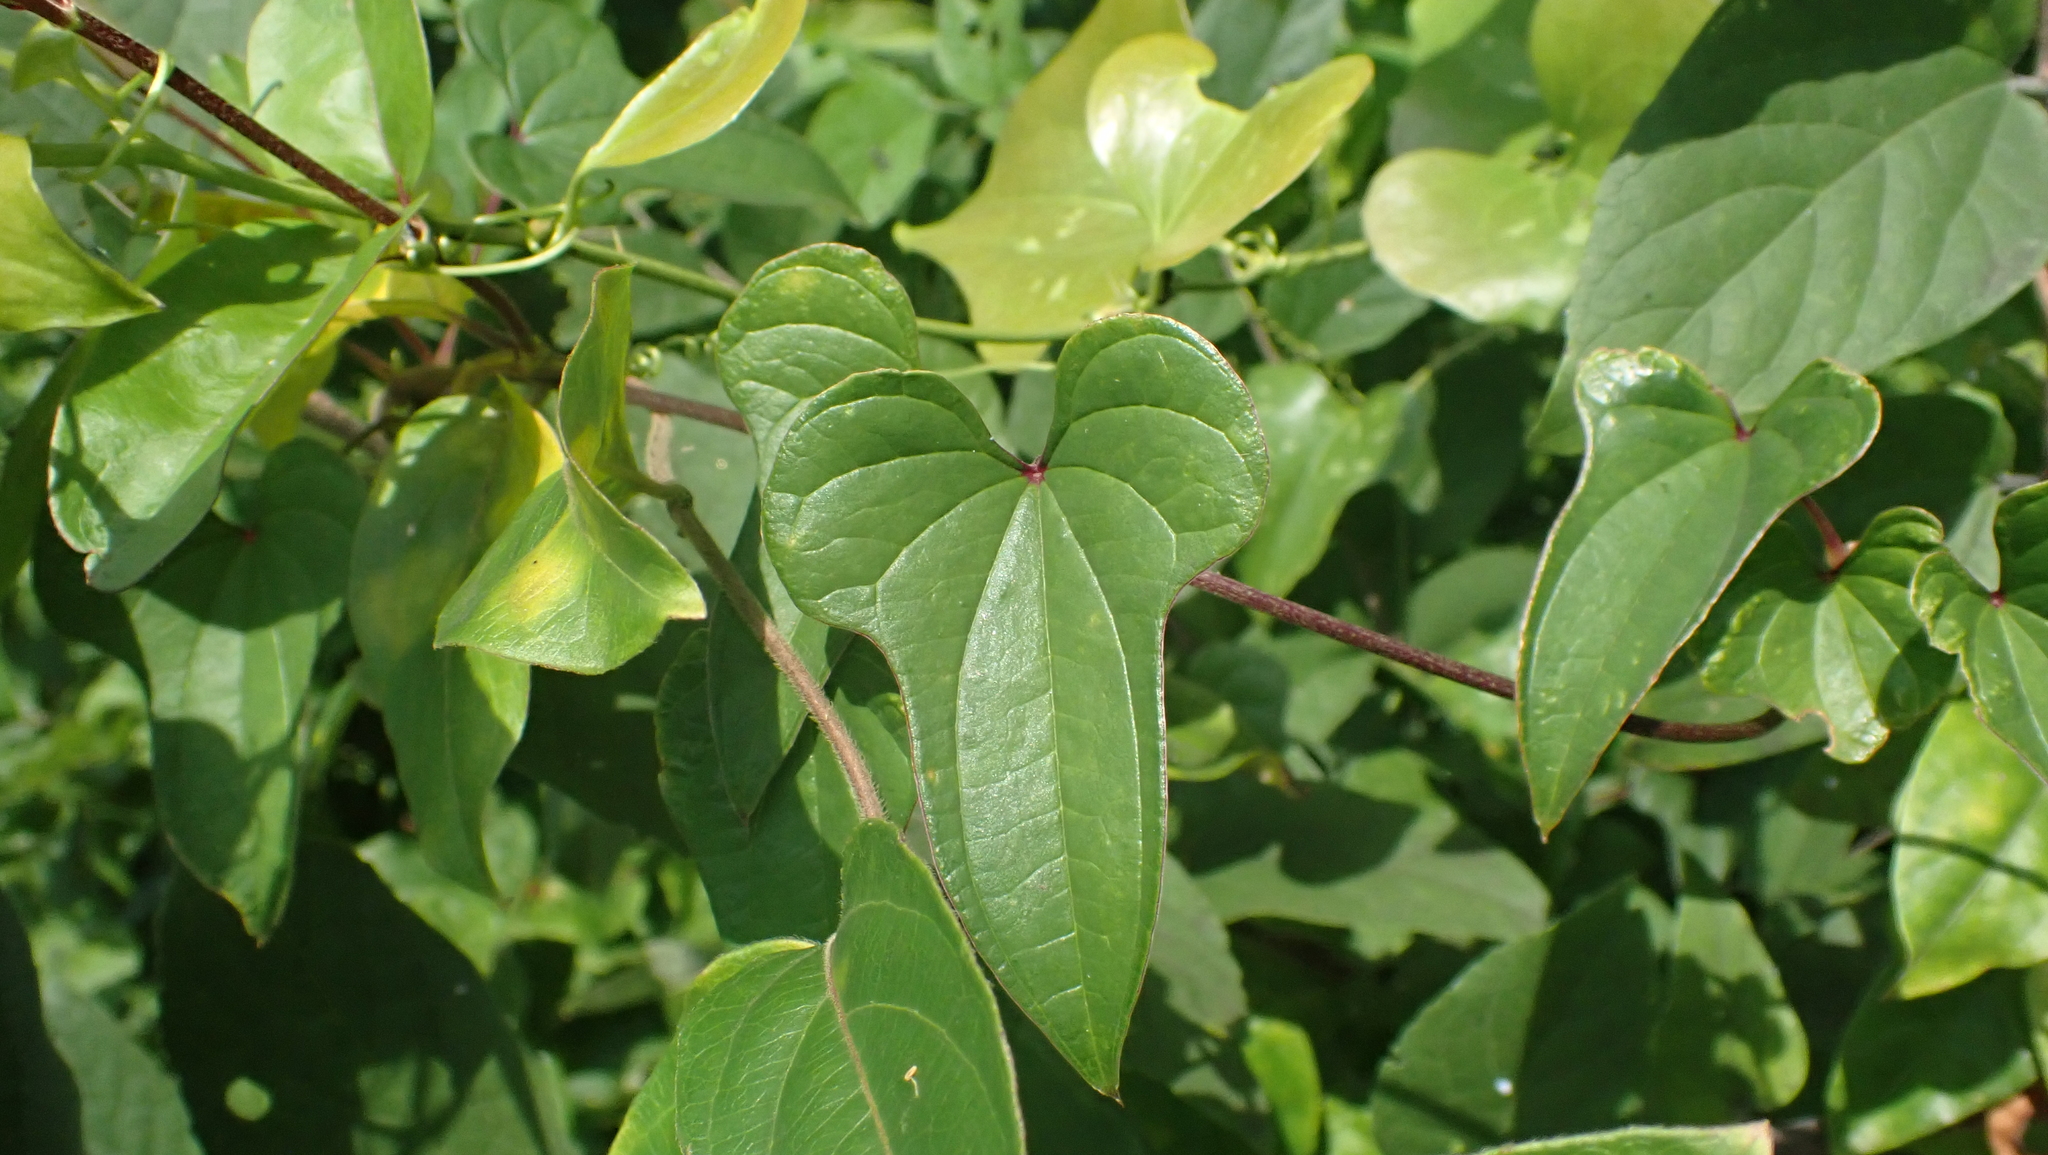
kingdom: Plantae
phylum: Tracheophyta
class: Liliopsida
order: Dioscoreales
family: Dioscoreaceae
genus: Dioscorea
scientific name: Dioscorea polystachya
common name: Chinese yam
